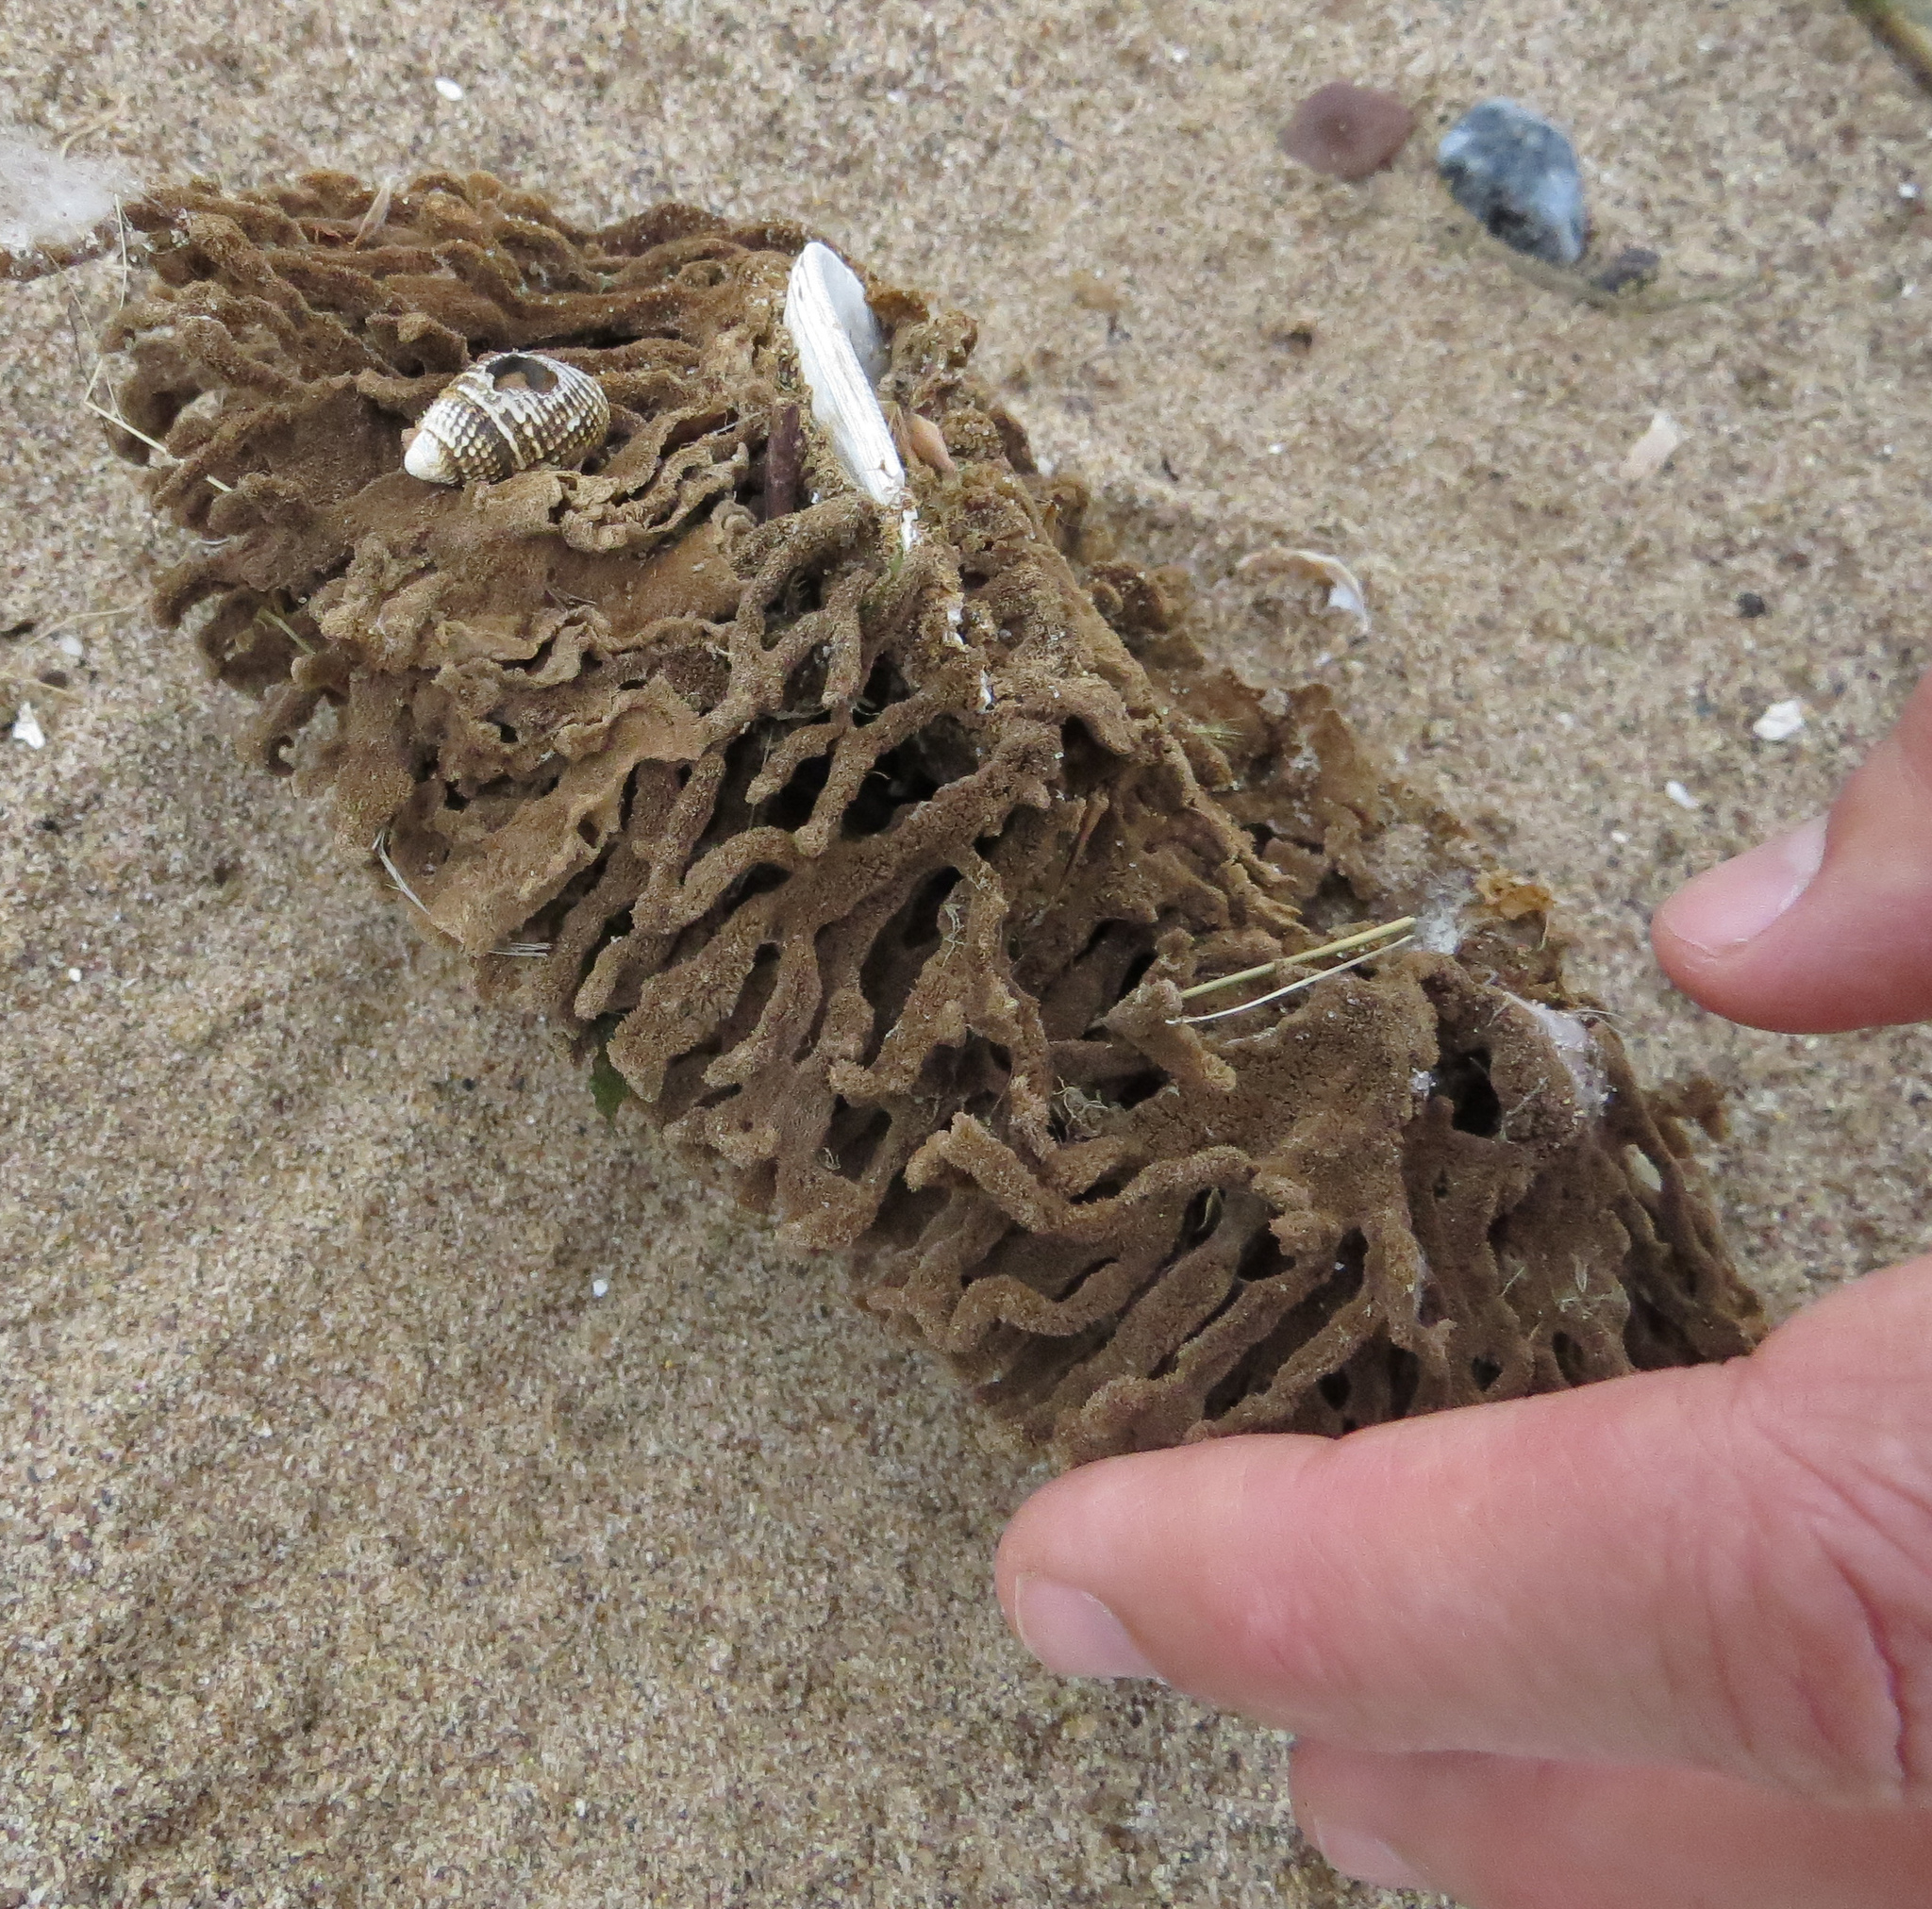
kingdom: Animalia
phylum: Porifera
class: Demospongiae
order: Poecilosclerida
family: Microcionidae
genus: Clathria
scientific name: Clathria prolifera
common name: Red beard sponge
